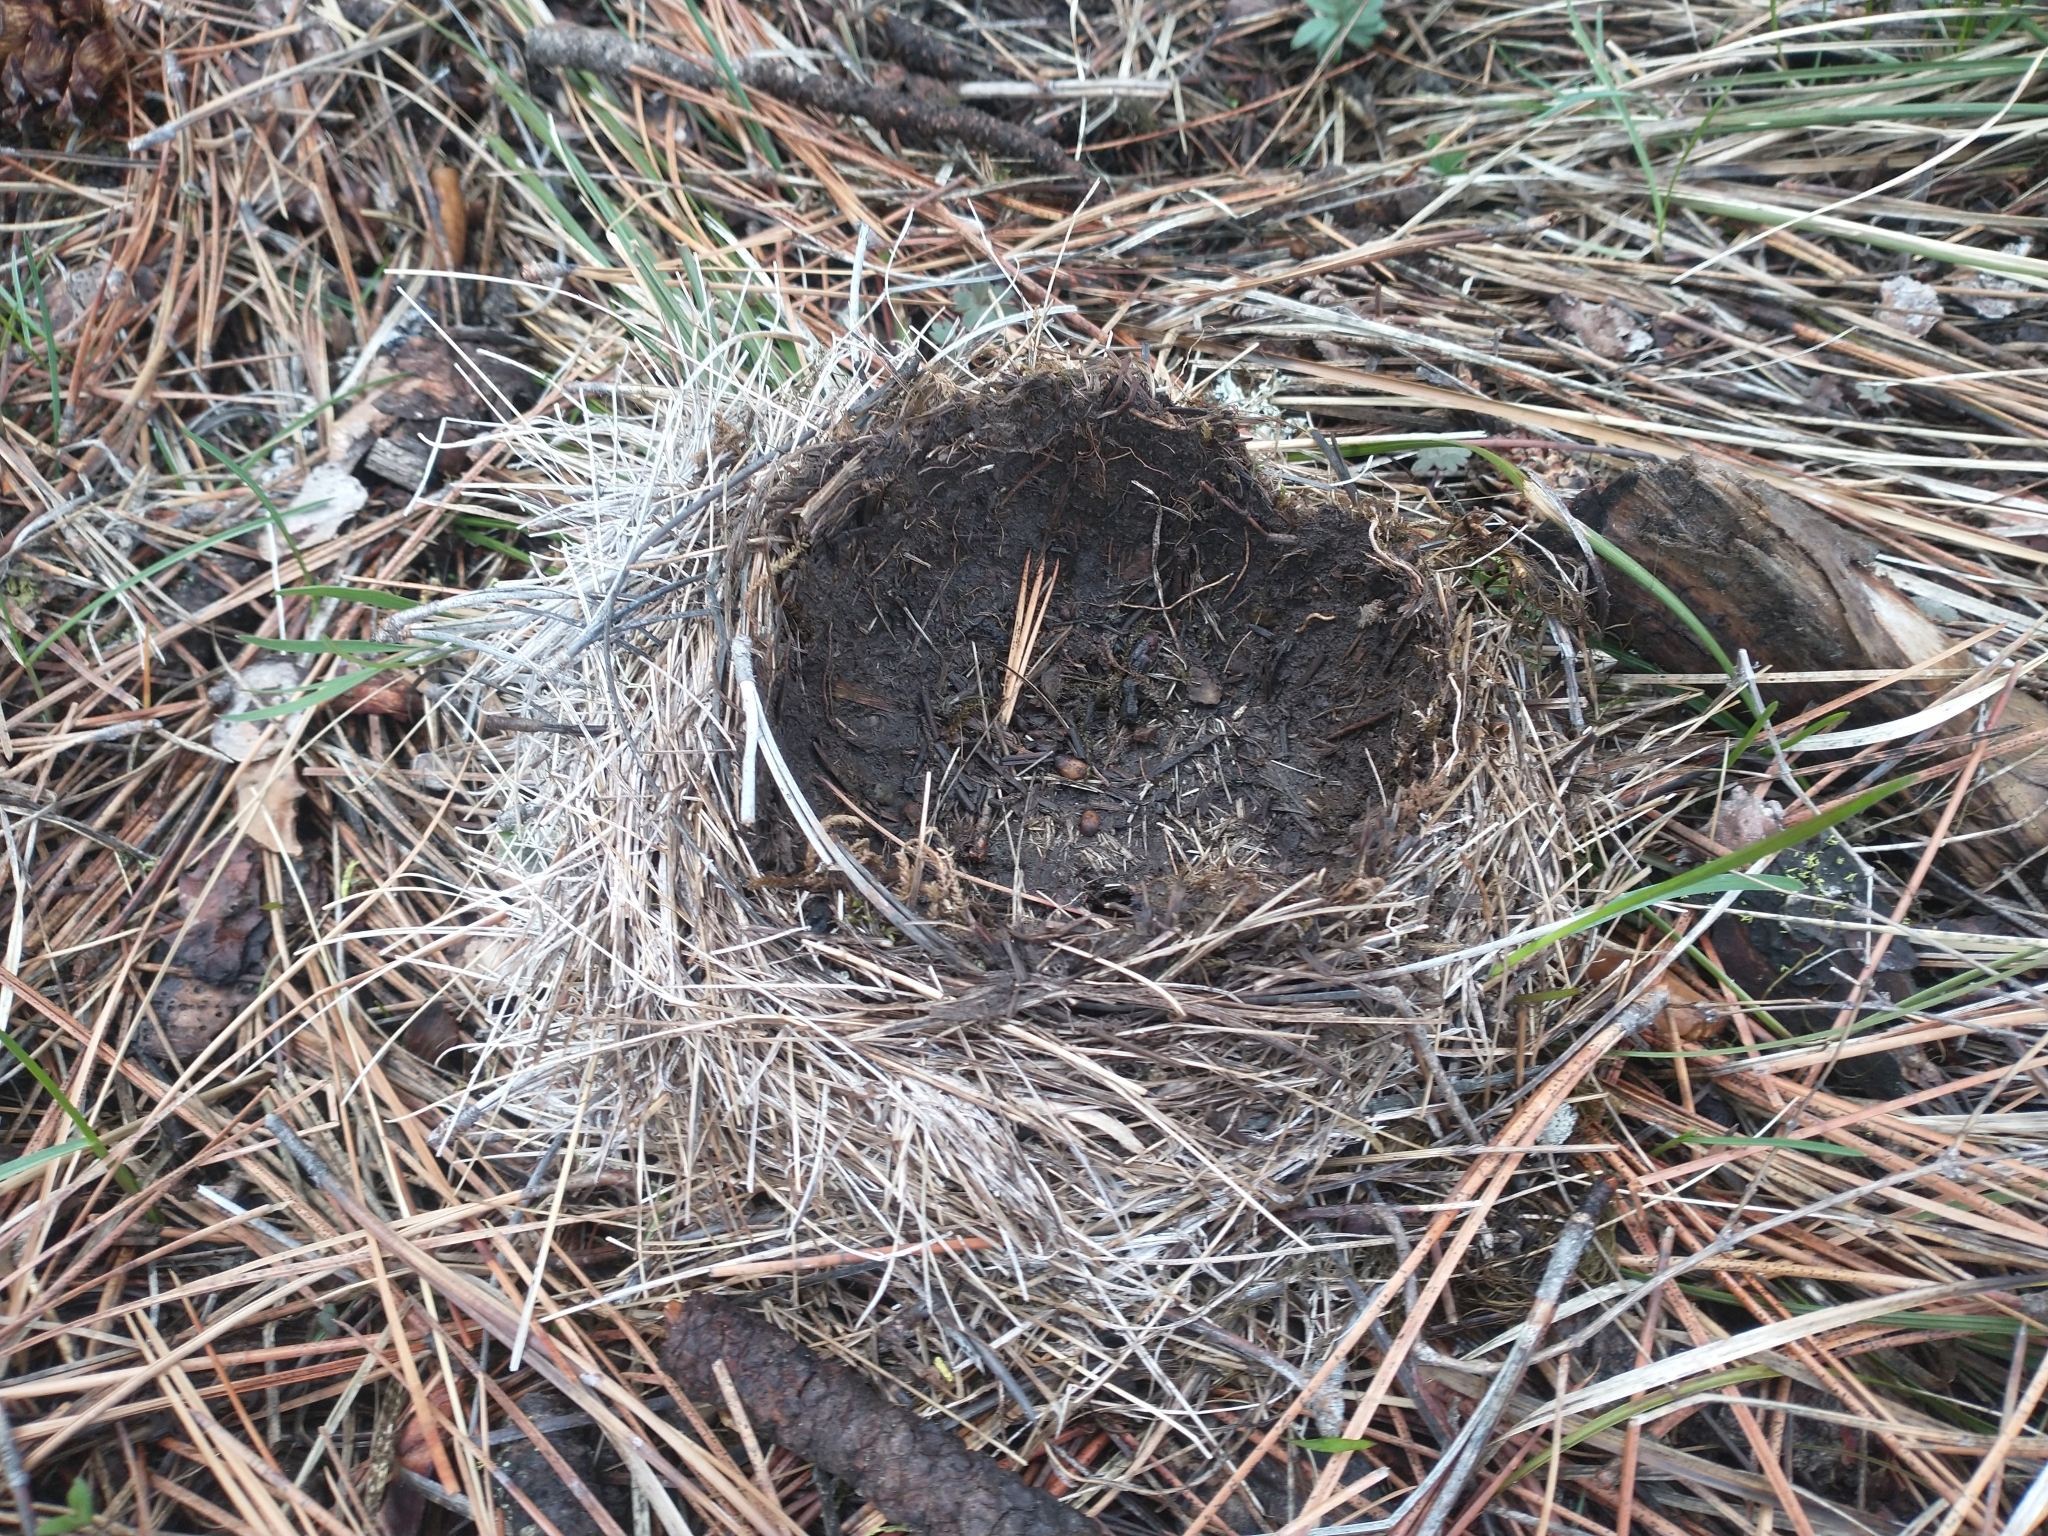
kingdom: Animalia
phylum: Chordata
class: Aves
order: Passeriformes
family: Turdidae
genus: Turdus
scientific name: Turdus migratorius
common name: American robin
